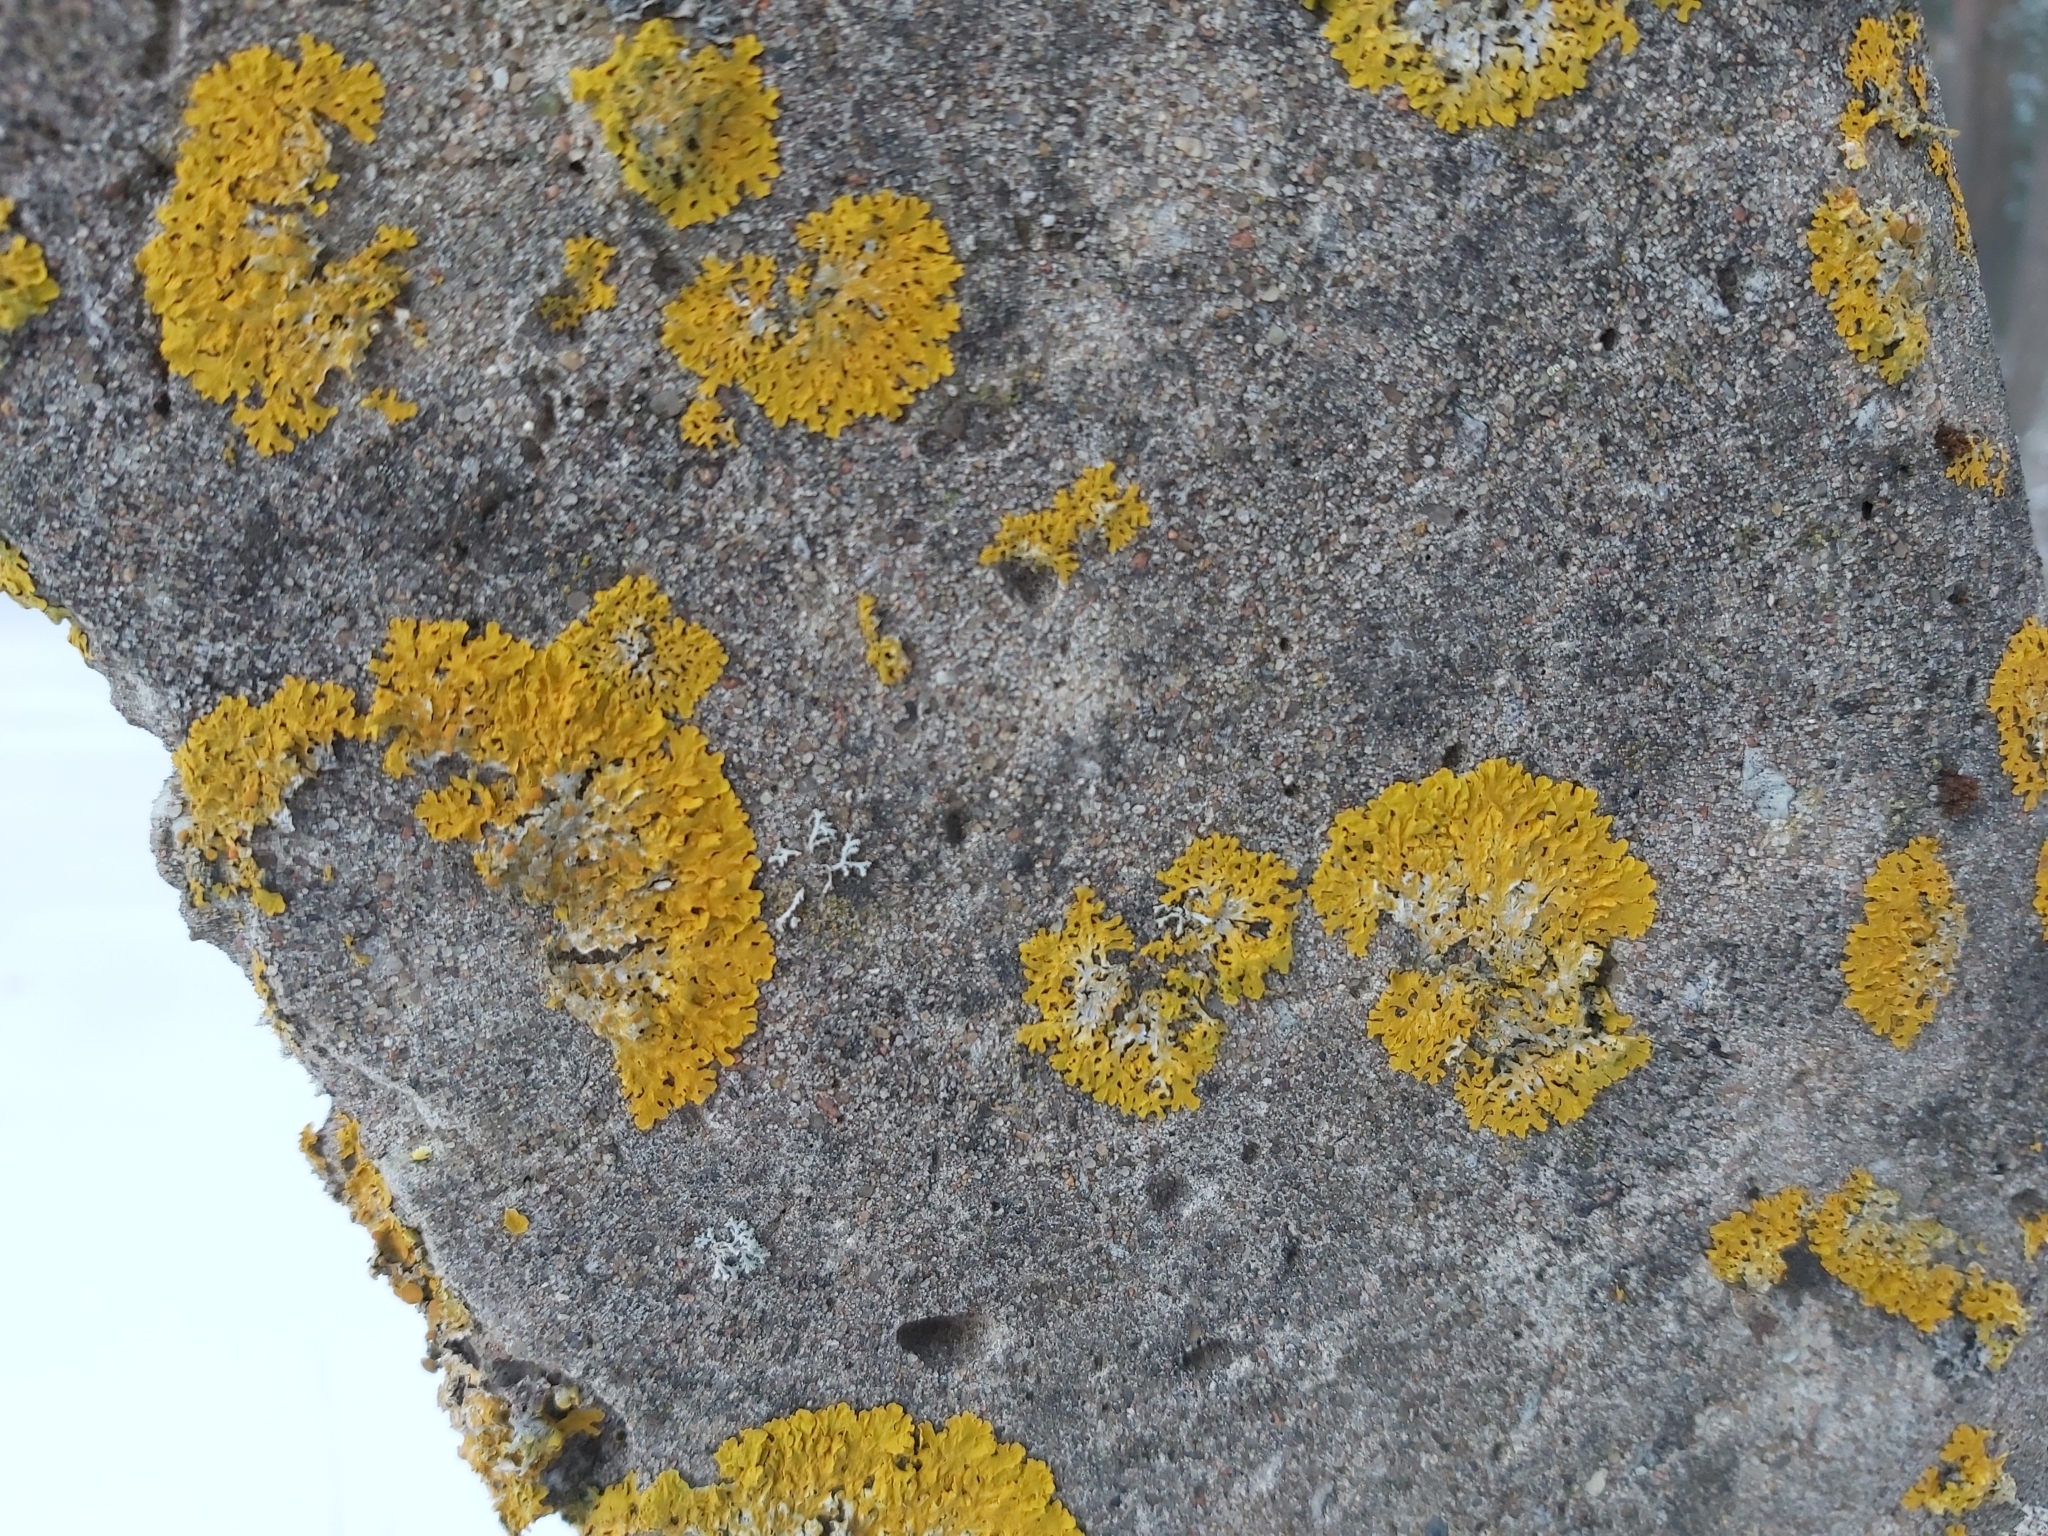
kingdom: Fungi
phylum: Ascomycota
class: Lecanoromycetes
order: Teloschistales
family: Teloschistaceae
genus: Xanthoria
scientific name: Xanthoria parietina
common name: Common orange lichen
